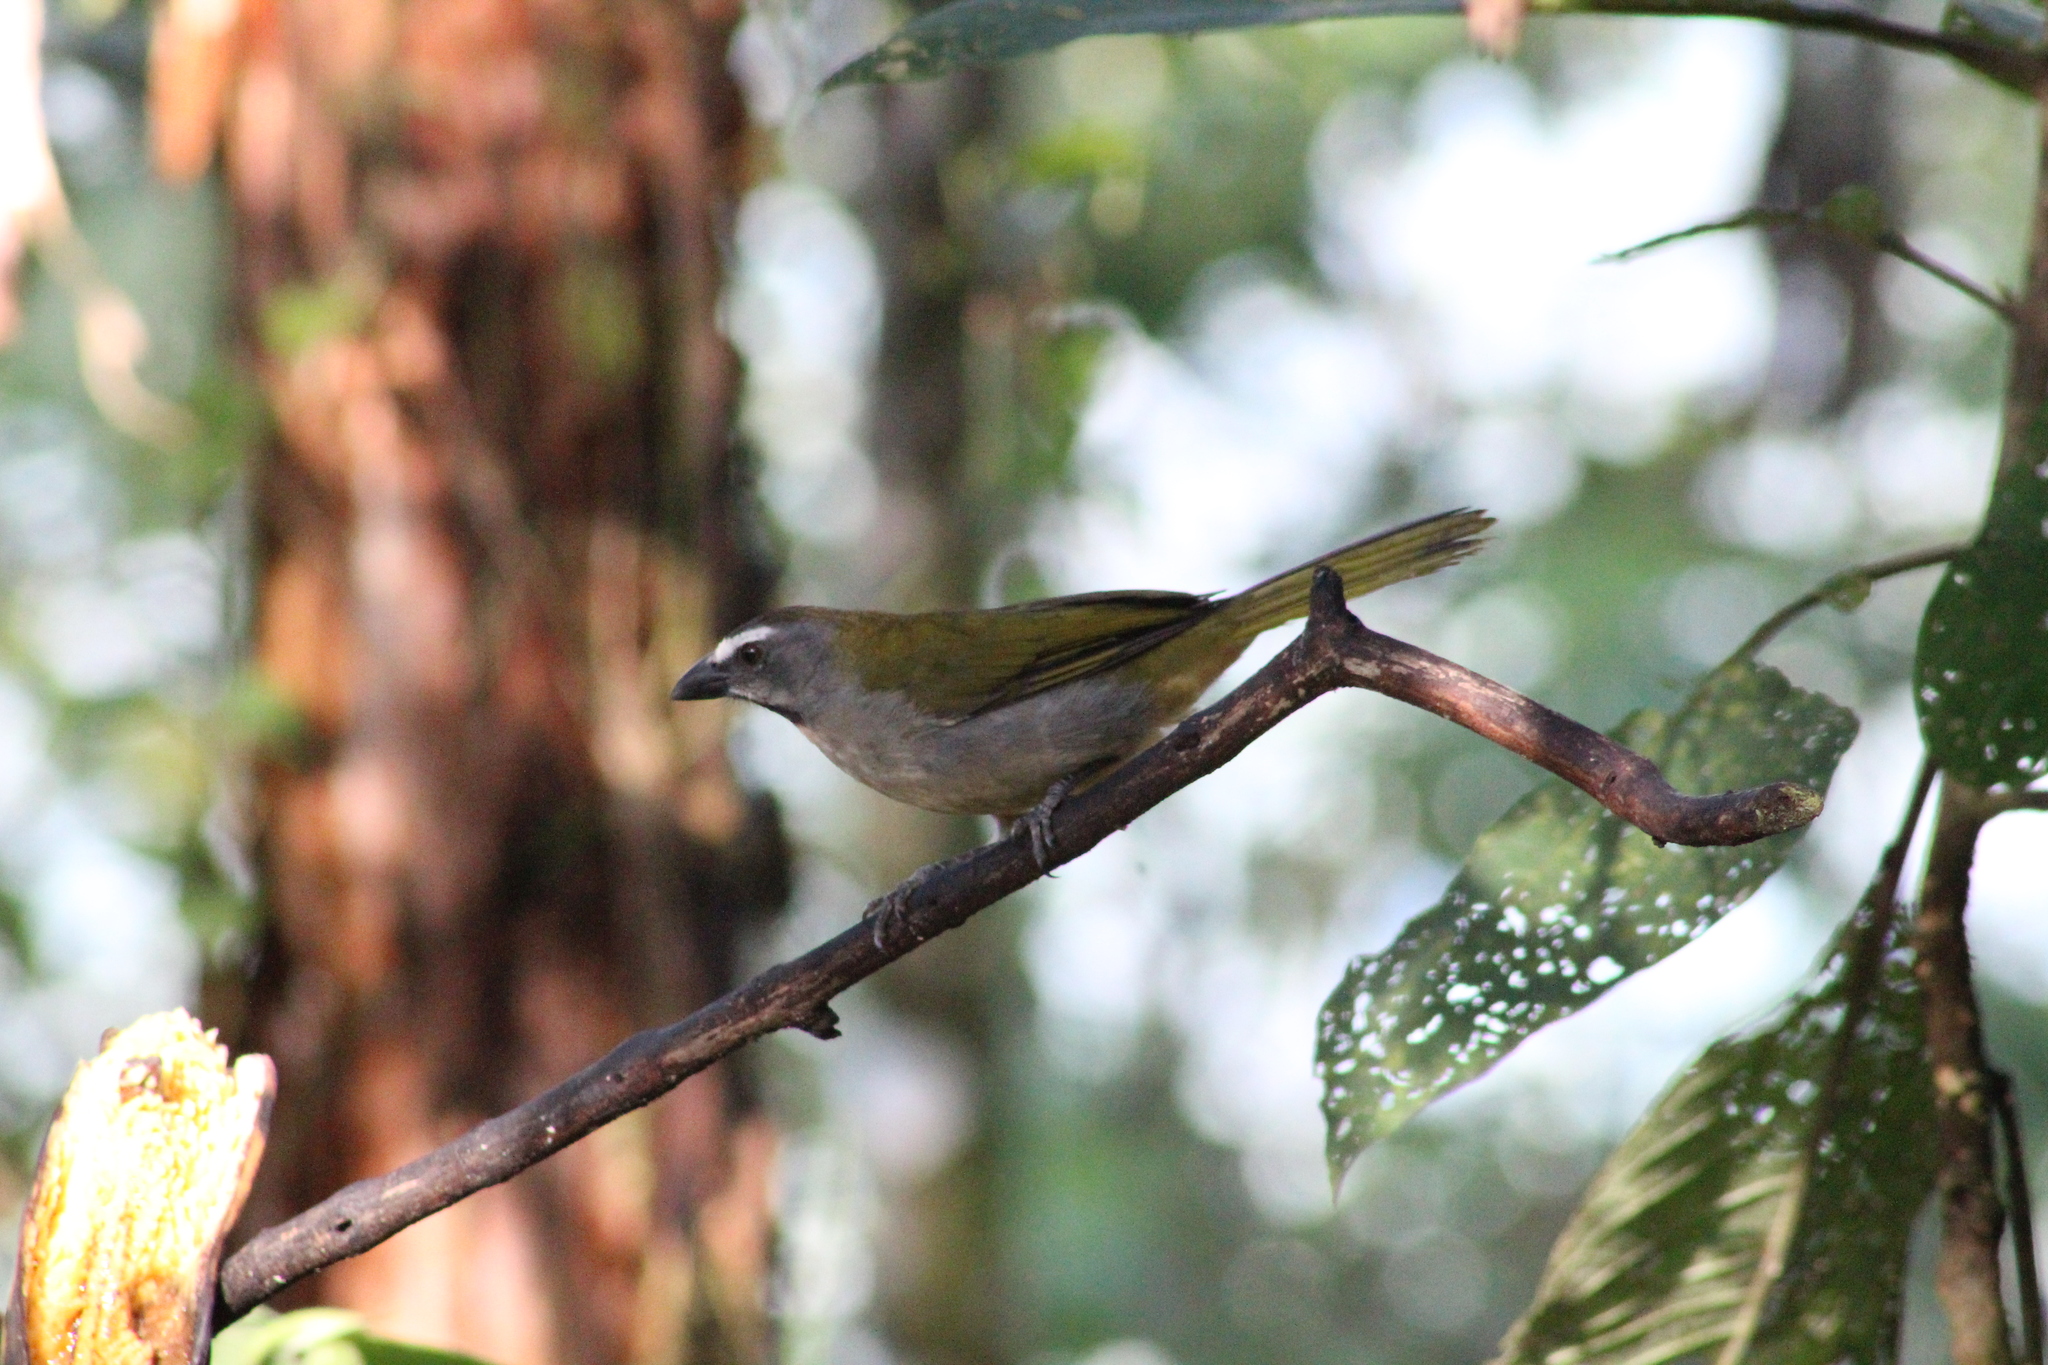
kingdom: Animalia
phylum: Chordata
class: Aves
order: Passeriformes
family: Thraupidae
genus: Saltator
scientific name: Saltator maximus
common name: Buff-throated saltator
